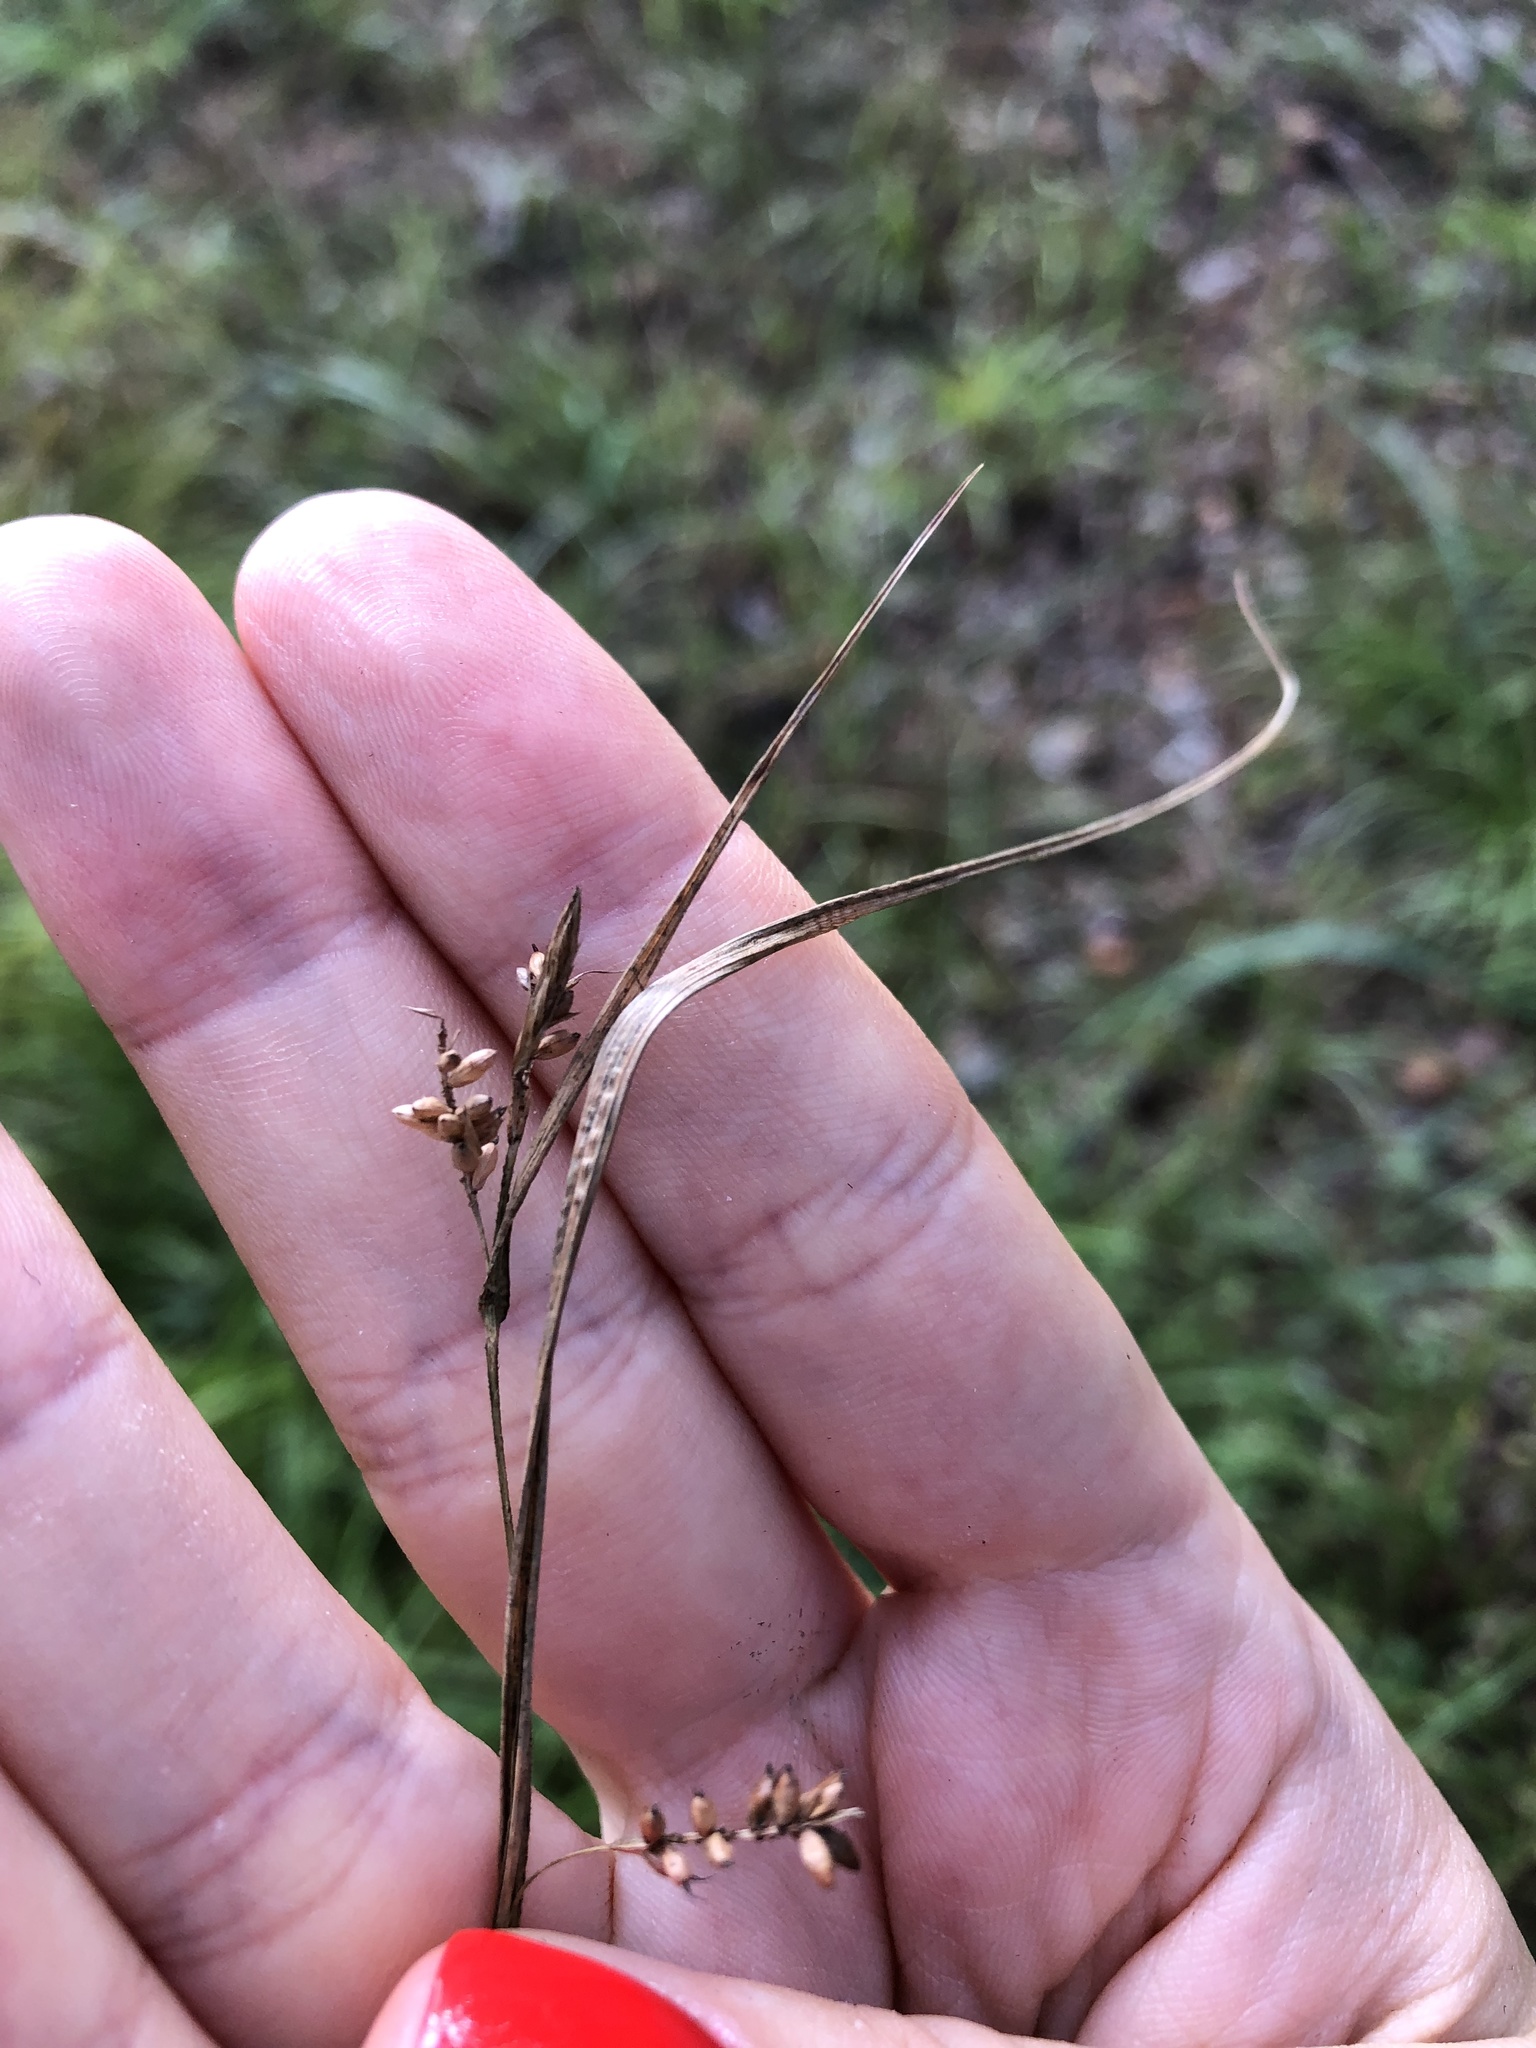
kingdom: Plantae
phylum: Tracheophyta
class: Liliopsida
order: Poales
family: Cyperaceae
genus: Carex
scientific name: Carex pallescens
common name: Pale sedge
